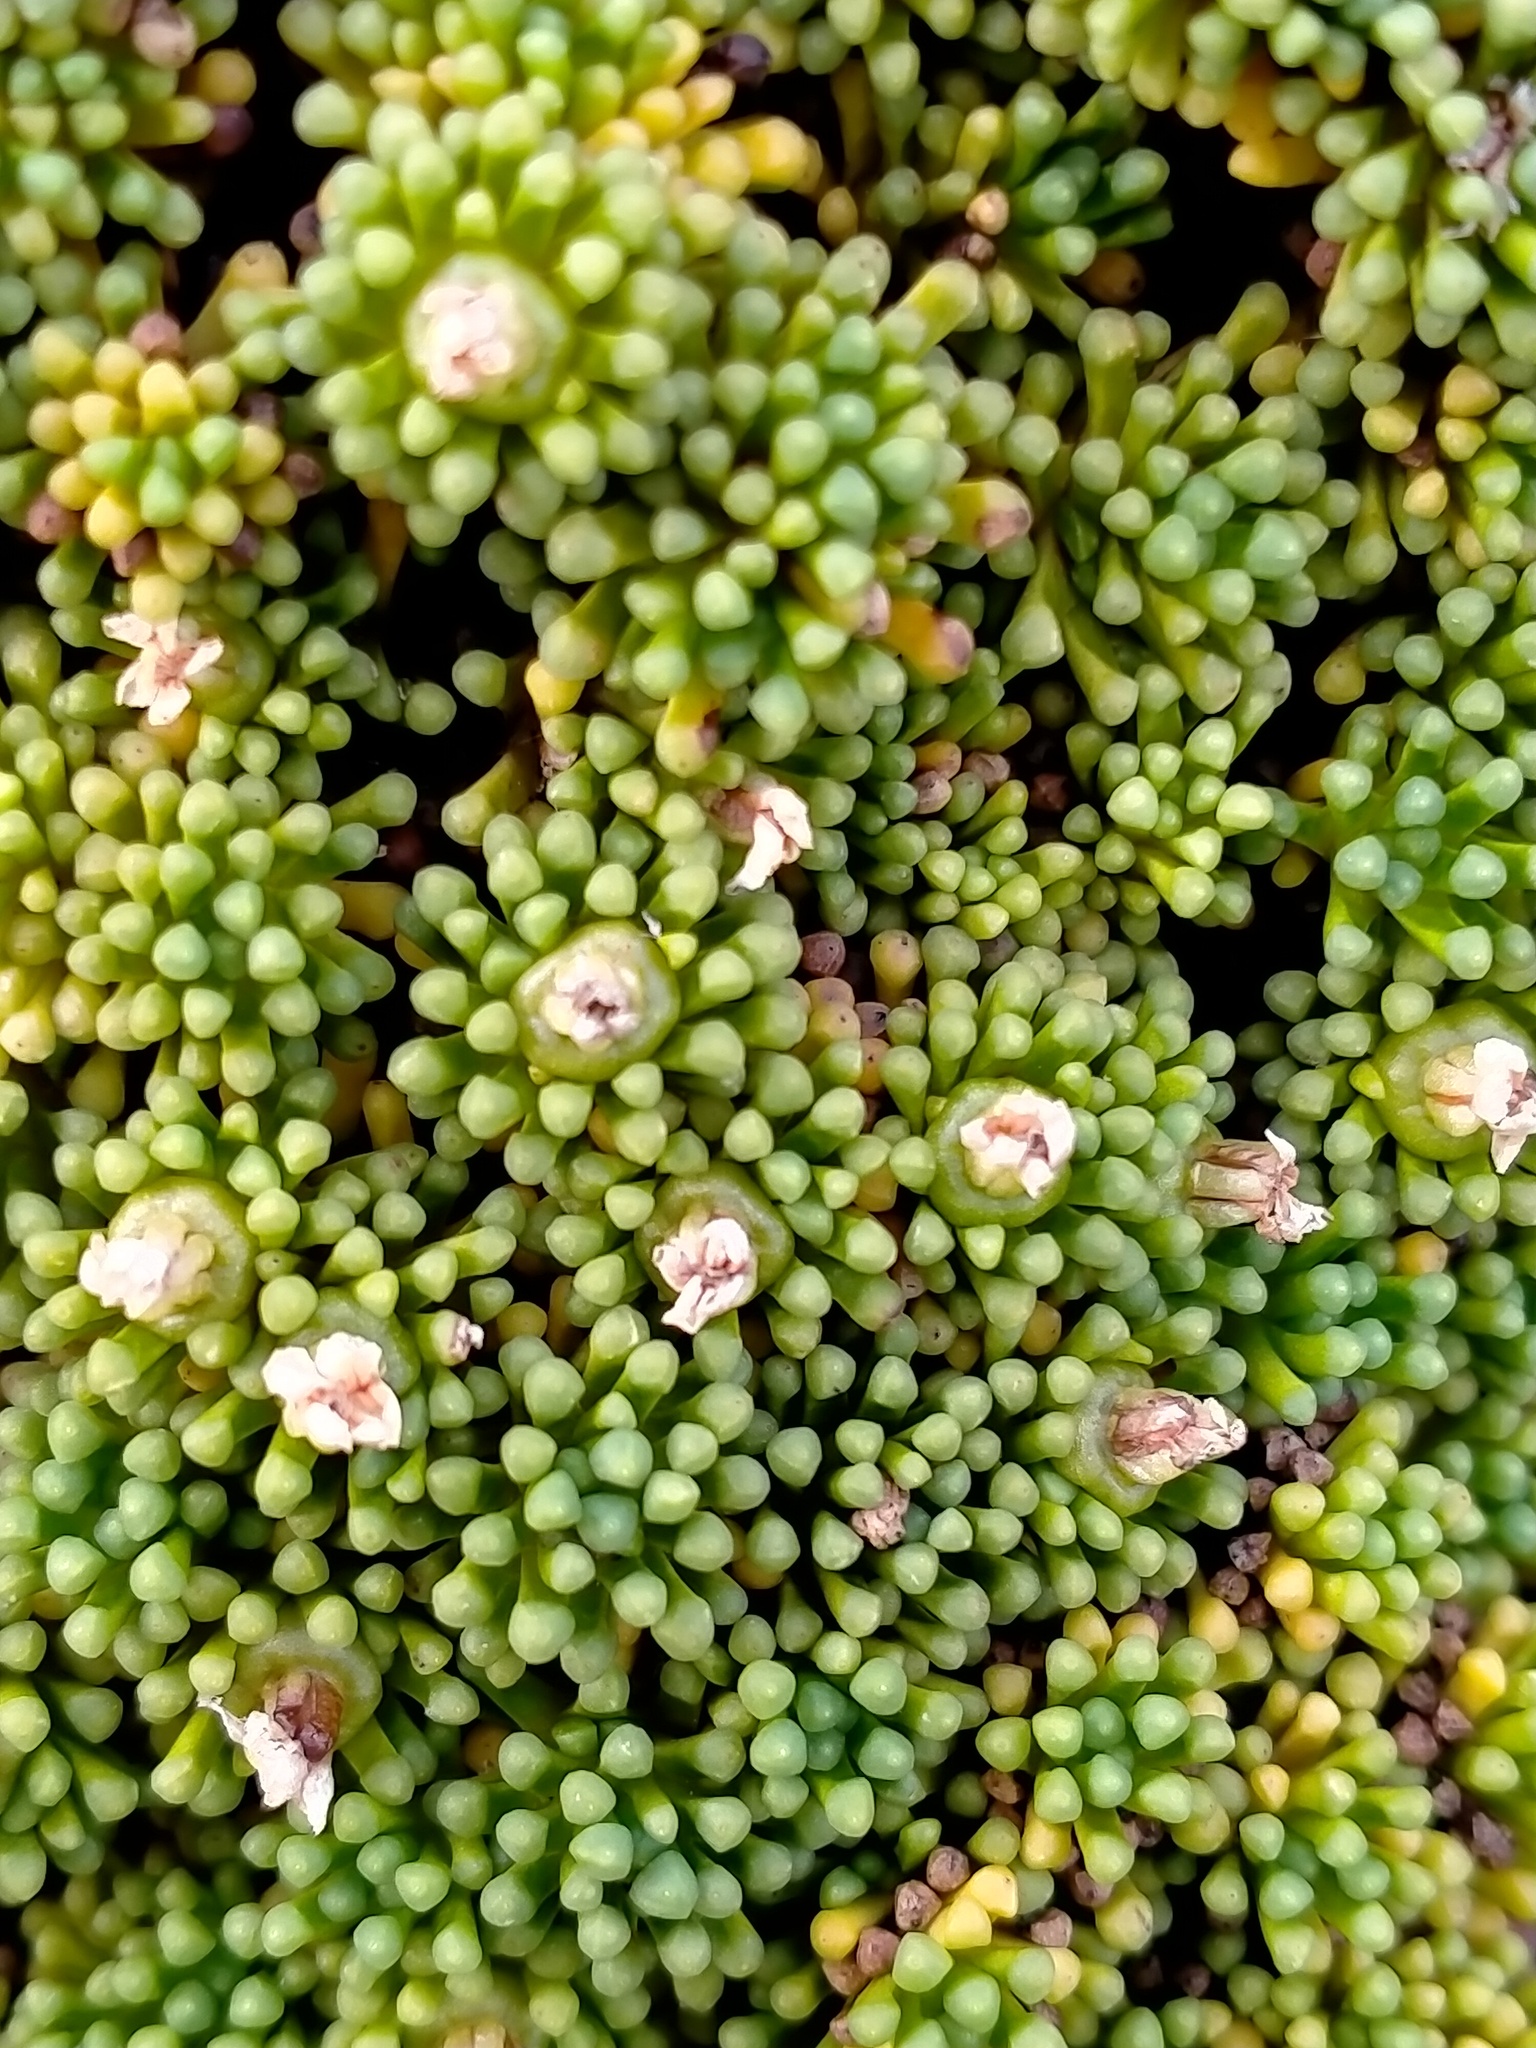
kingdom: Plantae
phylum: Tracheophyta
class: Magnoliopsida
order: Asterales
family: Stylidiaceae
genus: Phyllachne
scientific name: Phyllachne colensoi
